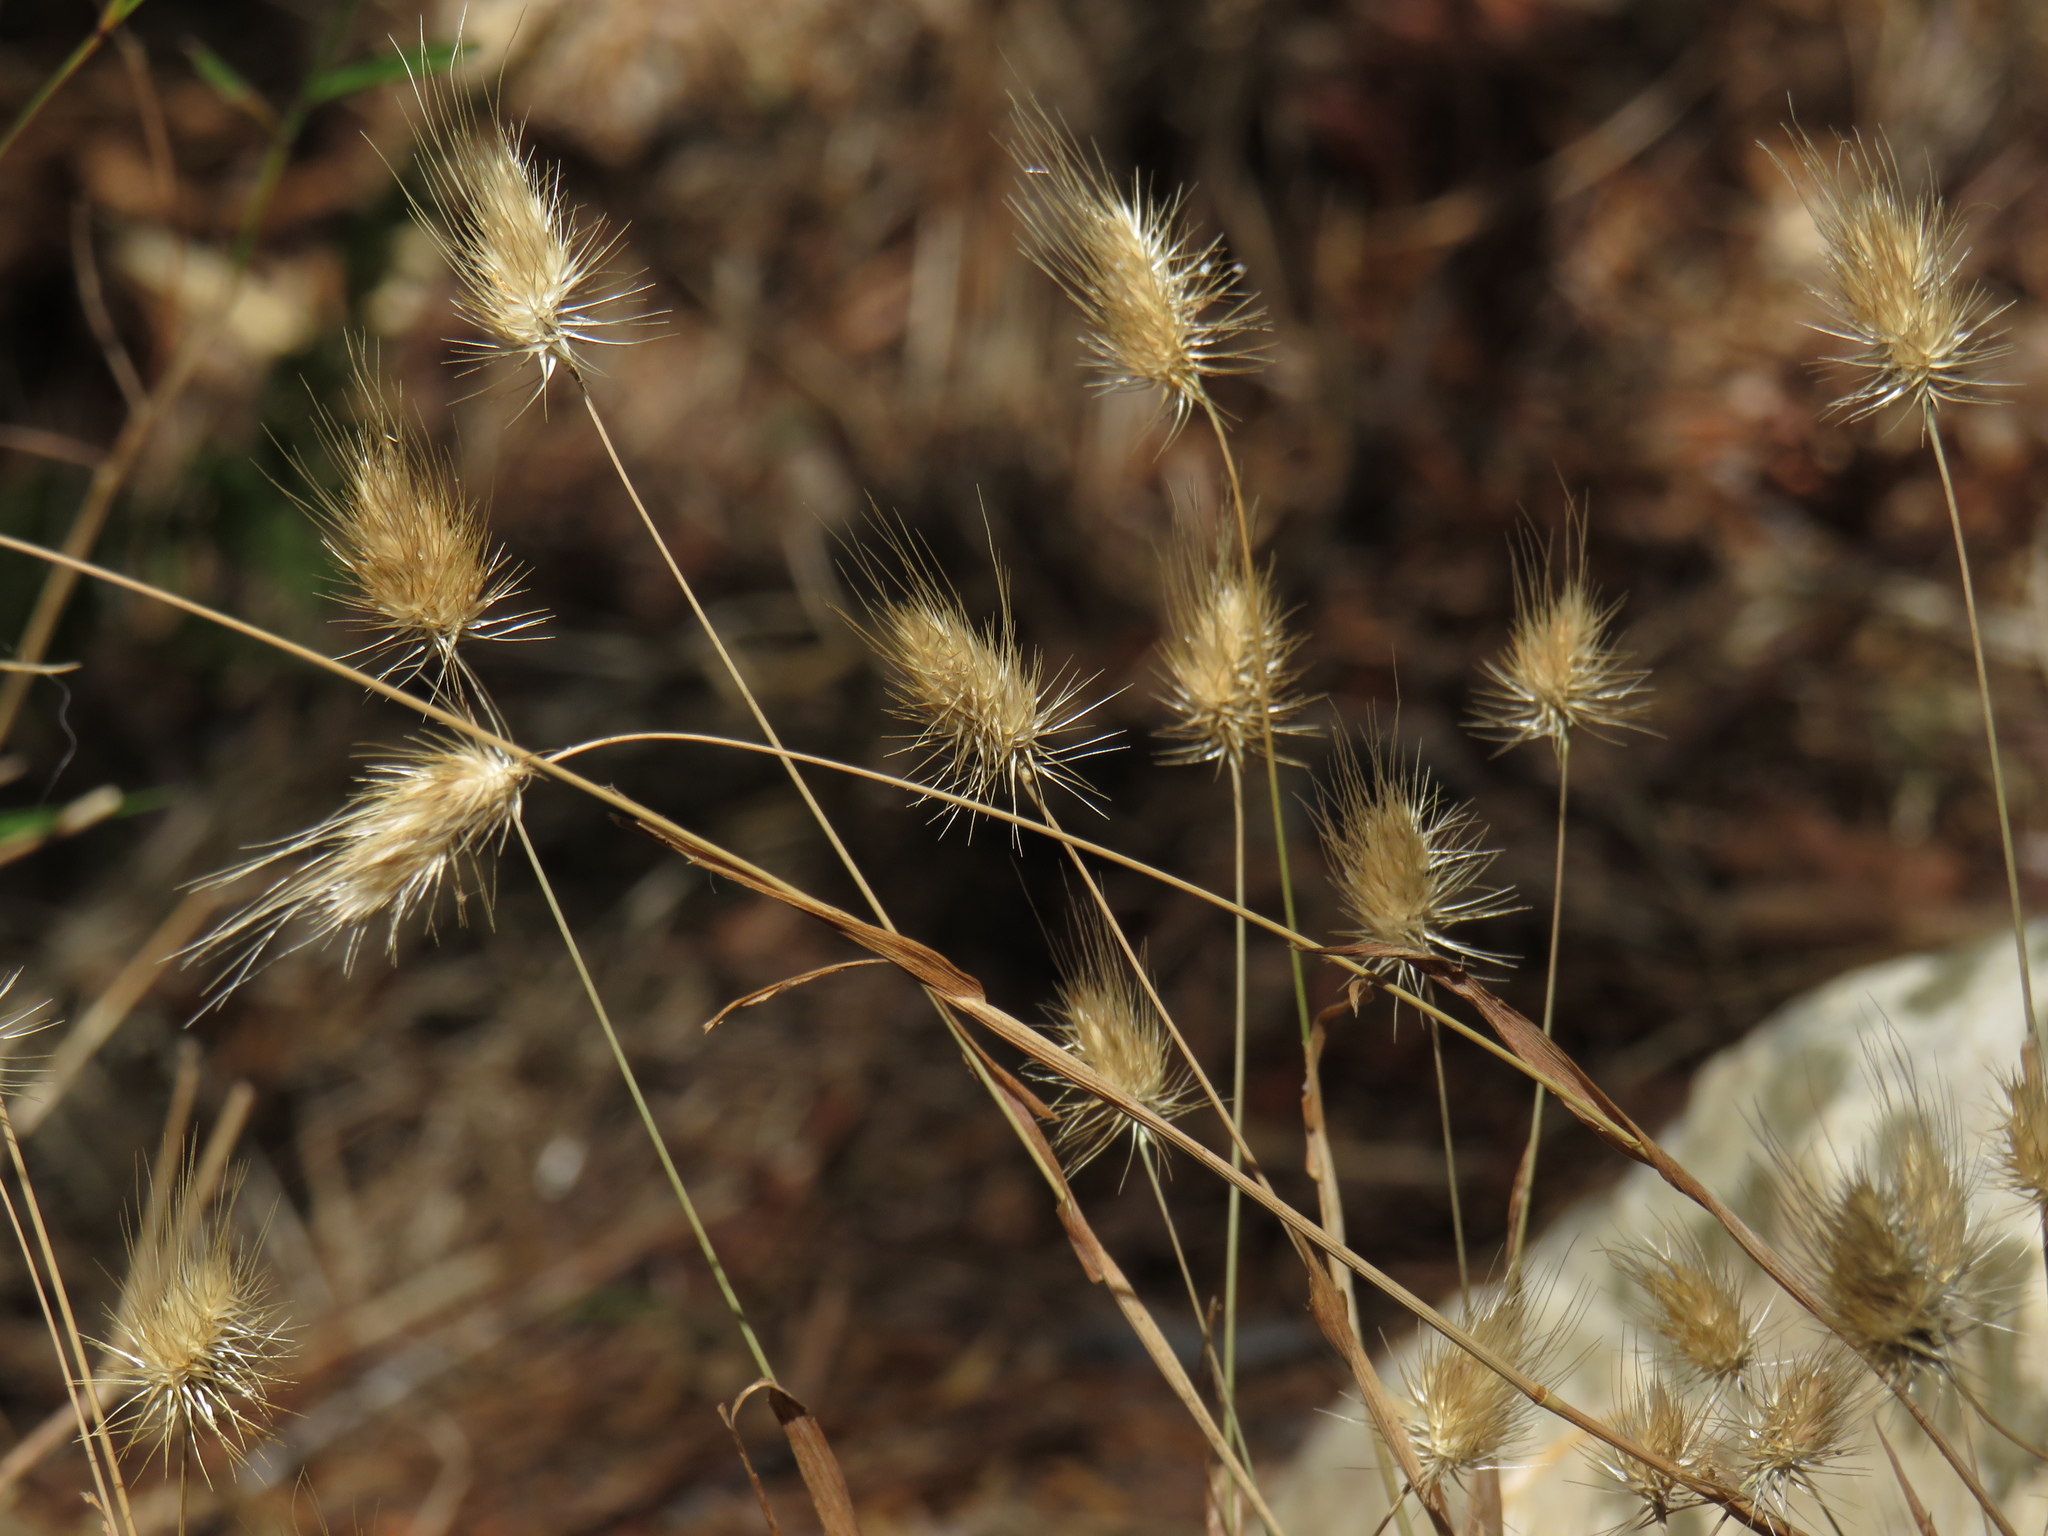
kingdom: Plantae
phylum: Tracheophyta
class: Liliopsida
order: Poales
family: Poaceae
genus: Cynosurus
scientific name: Cynosurus echinatus
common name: Rough dog's-tail
